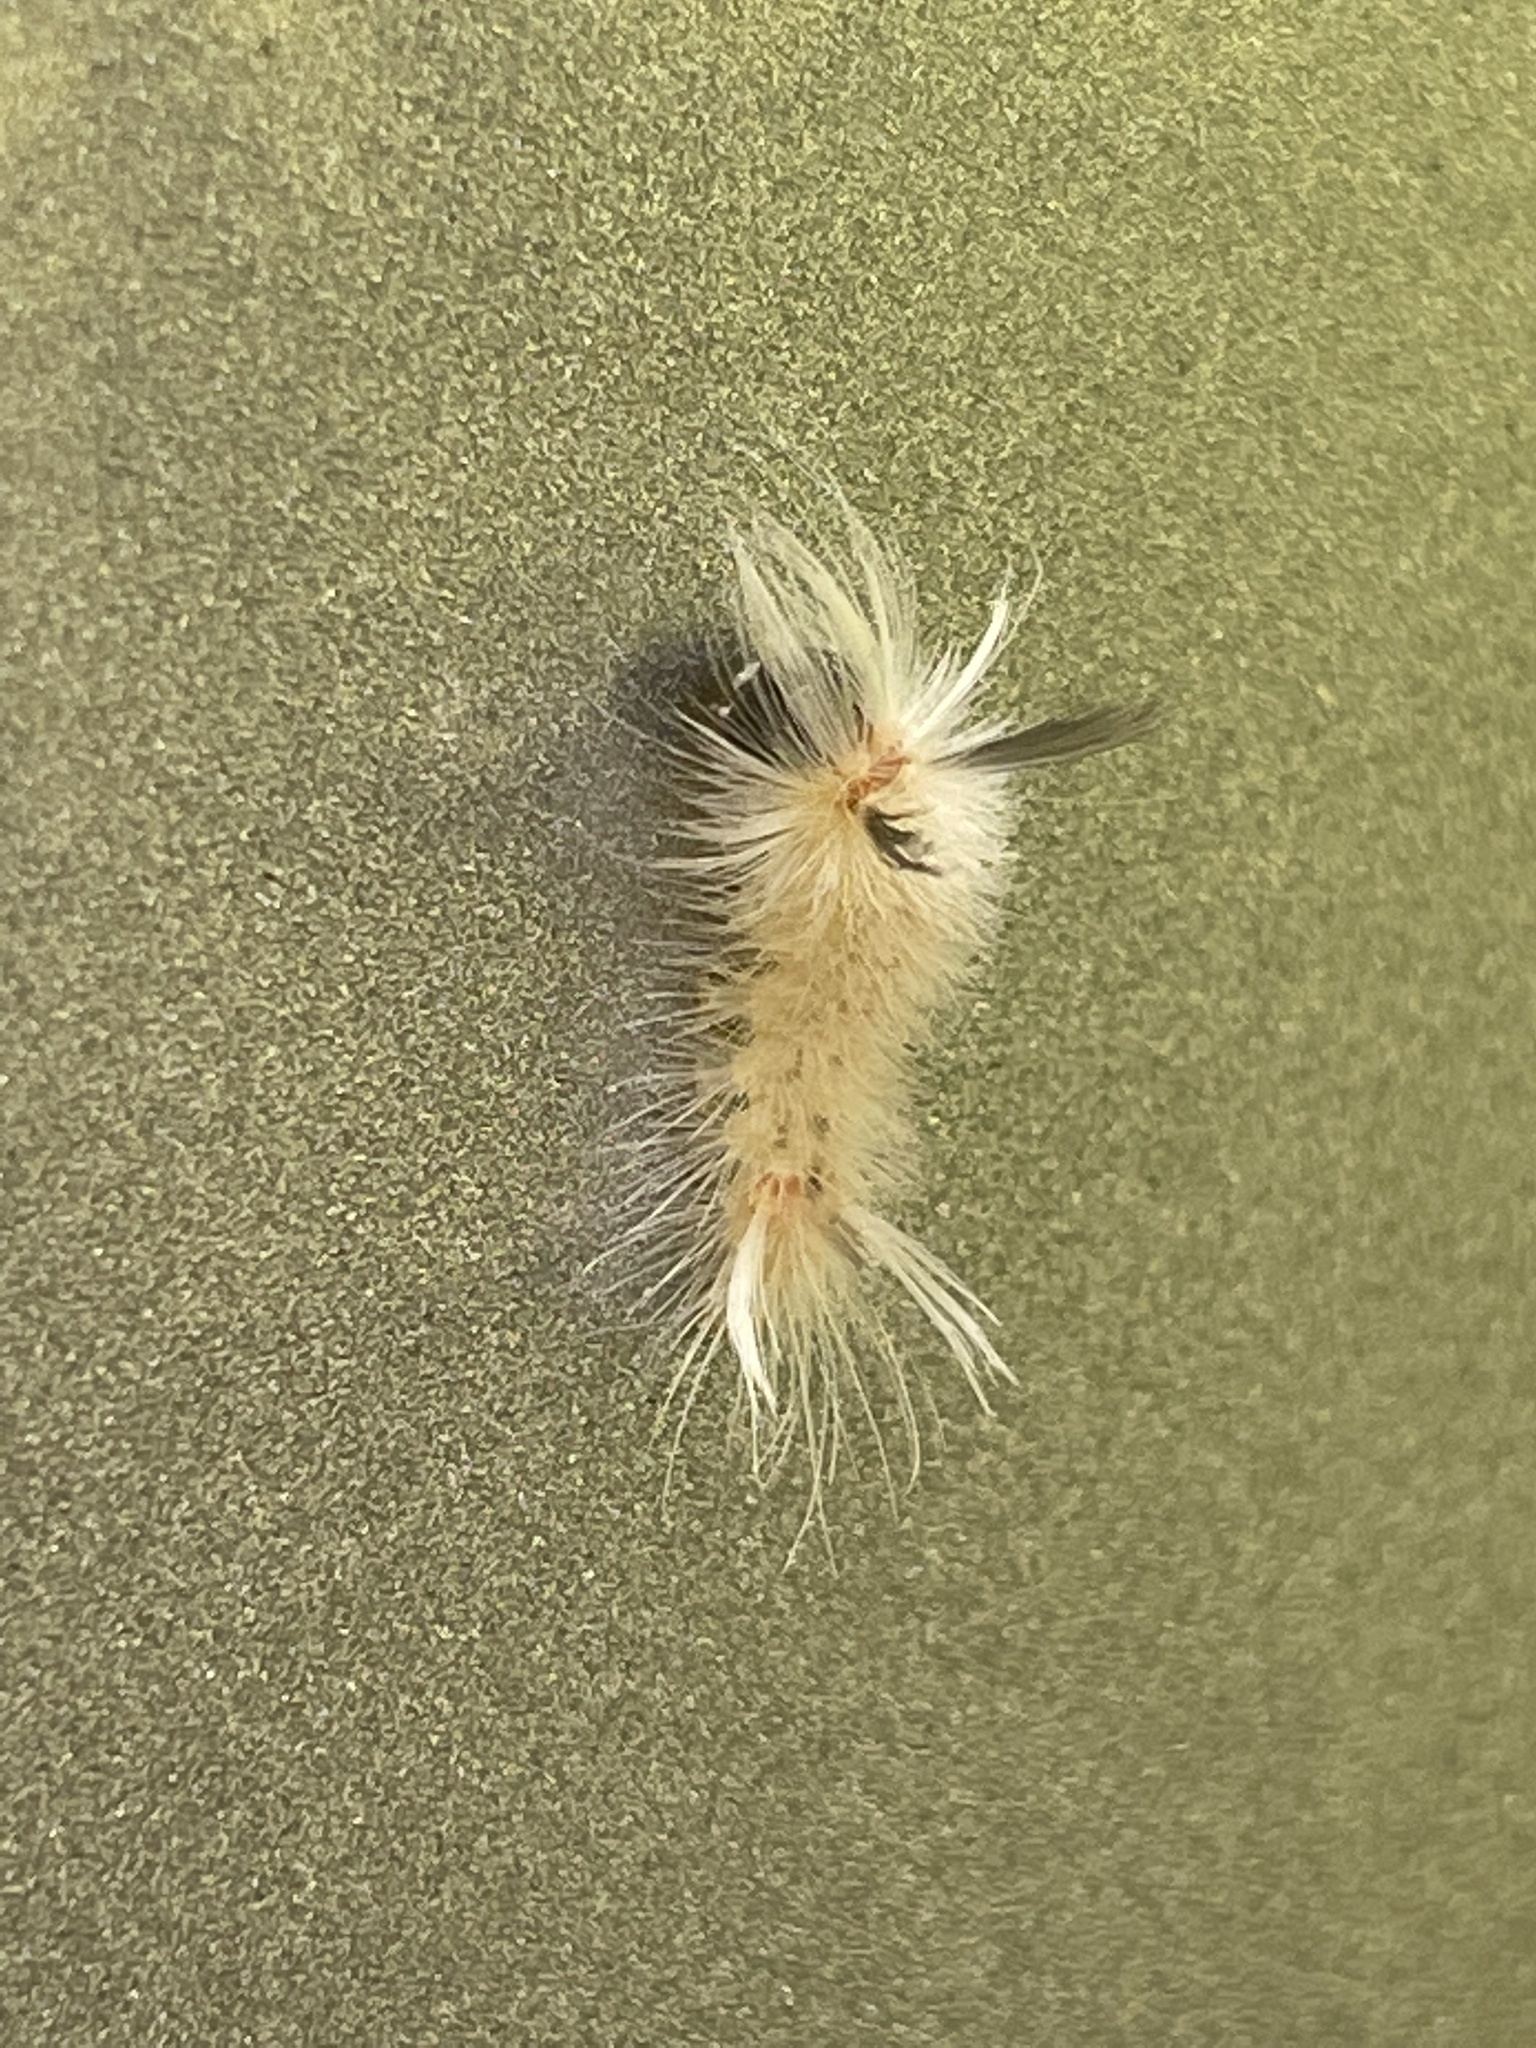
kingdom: Animalia
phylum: Arthropoda
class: Insecta
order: Lepidoptera
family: Erebidae
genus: Halysidota
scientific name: Halysidota tessellaris
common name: Banded tussock moth
